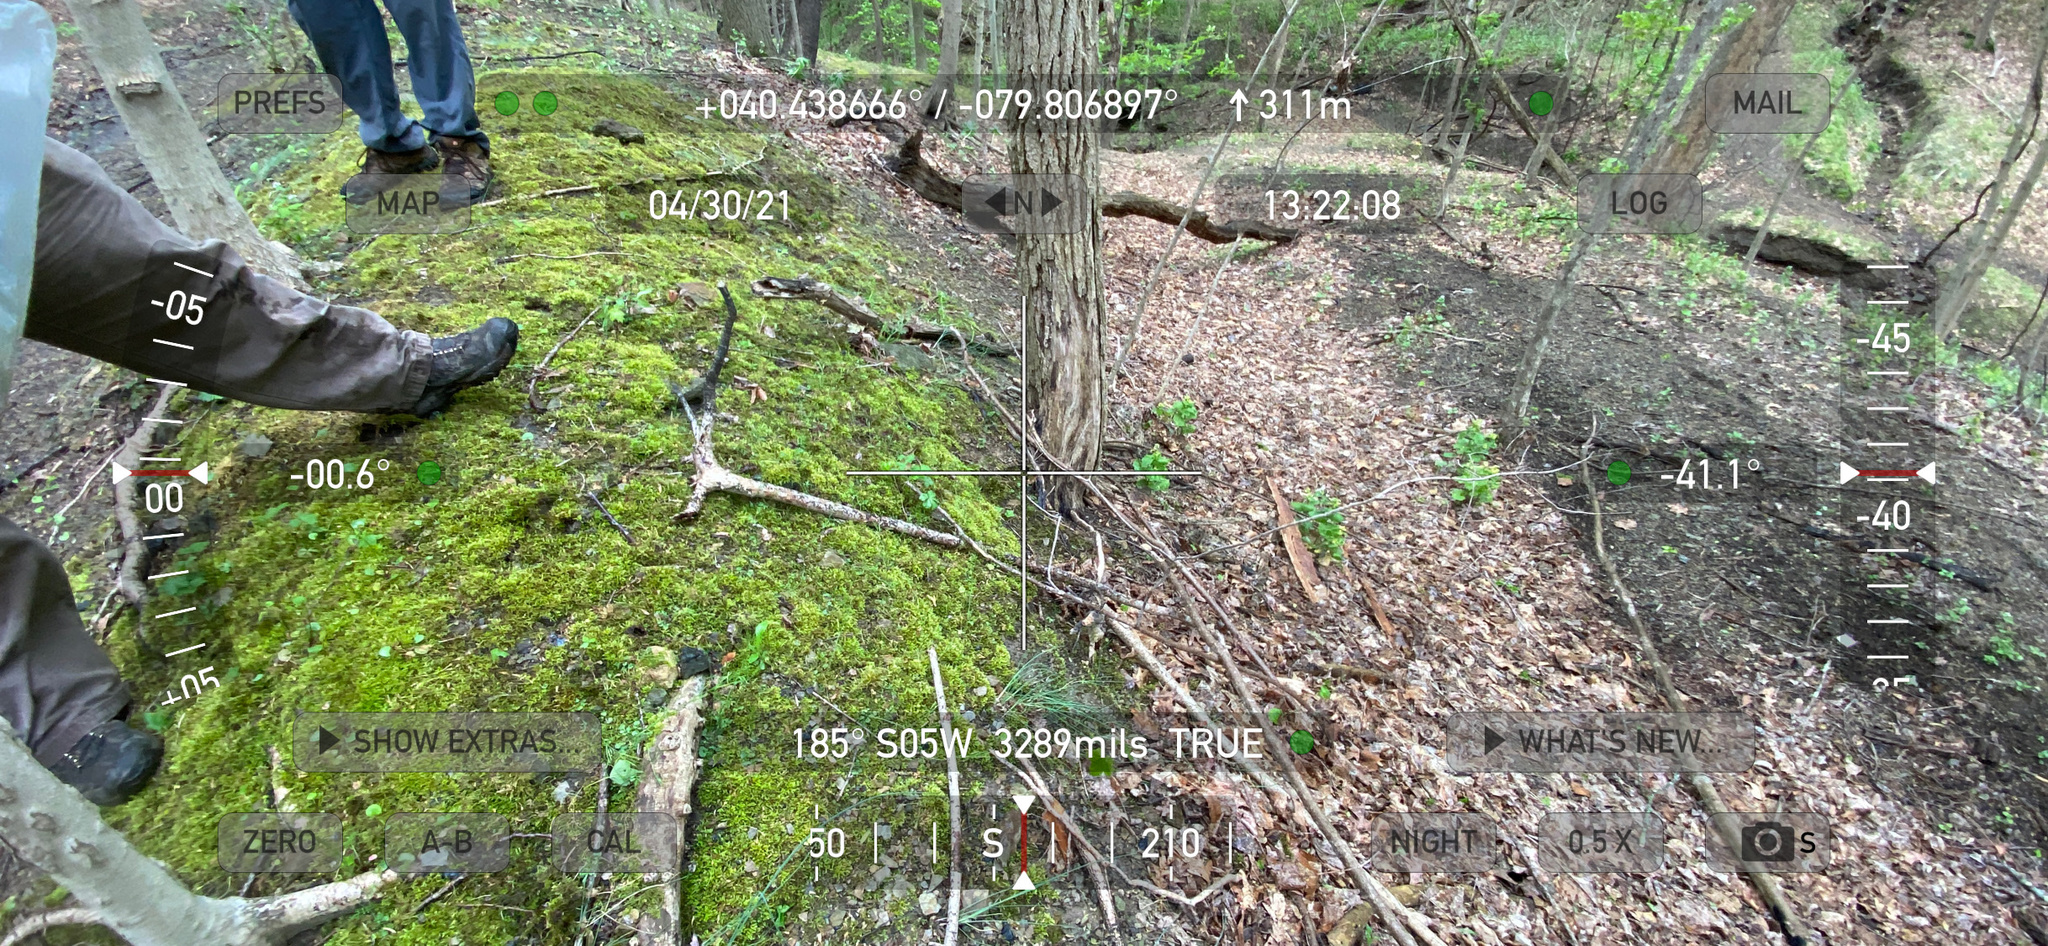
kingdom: Plantae
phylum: Tracheophyta
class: Magnoliopsida
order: Brassicales
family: Brassicaceae
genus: Barbarea
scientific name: Barbarea vulgaris
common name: Cressy-greens
